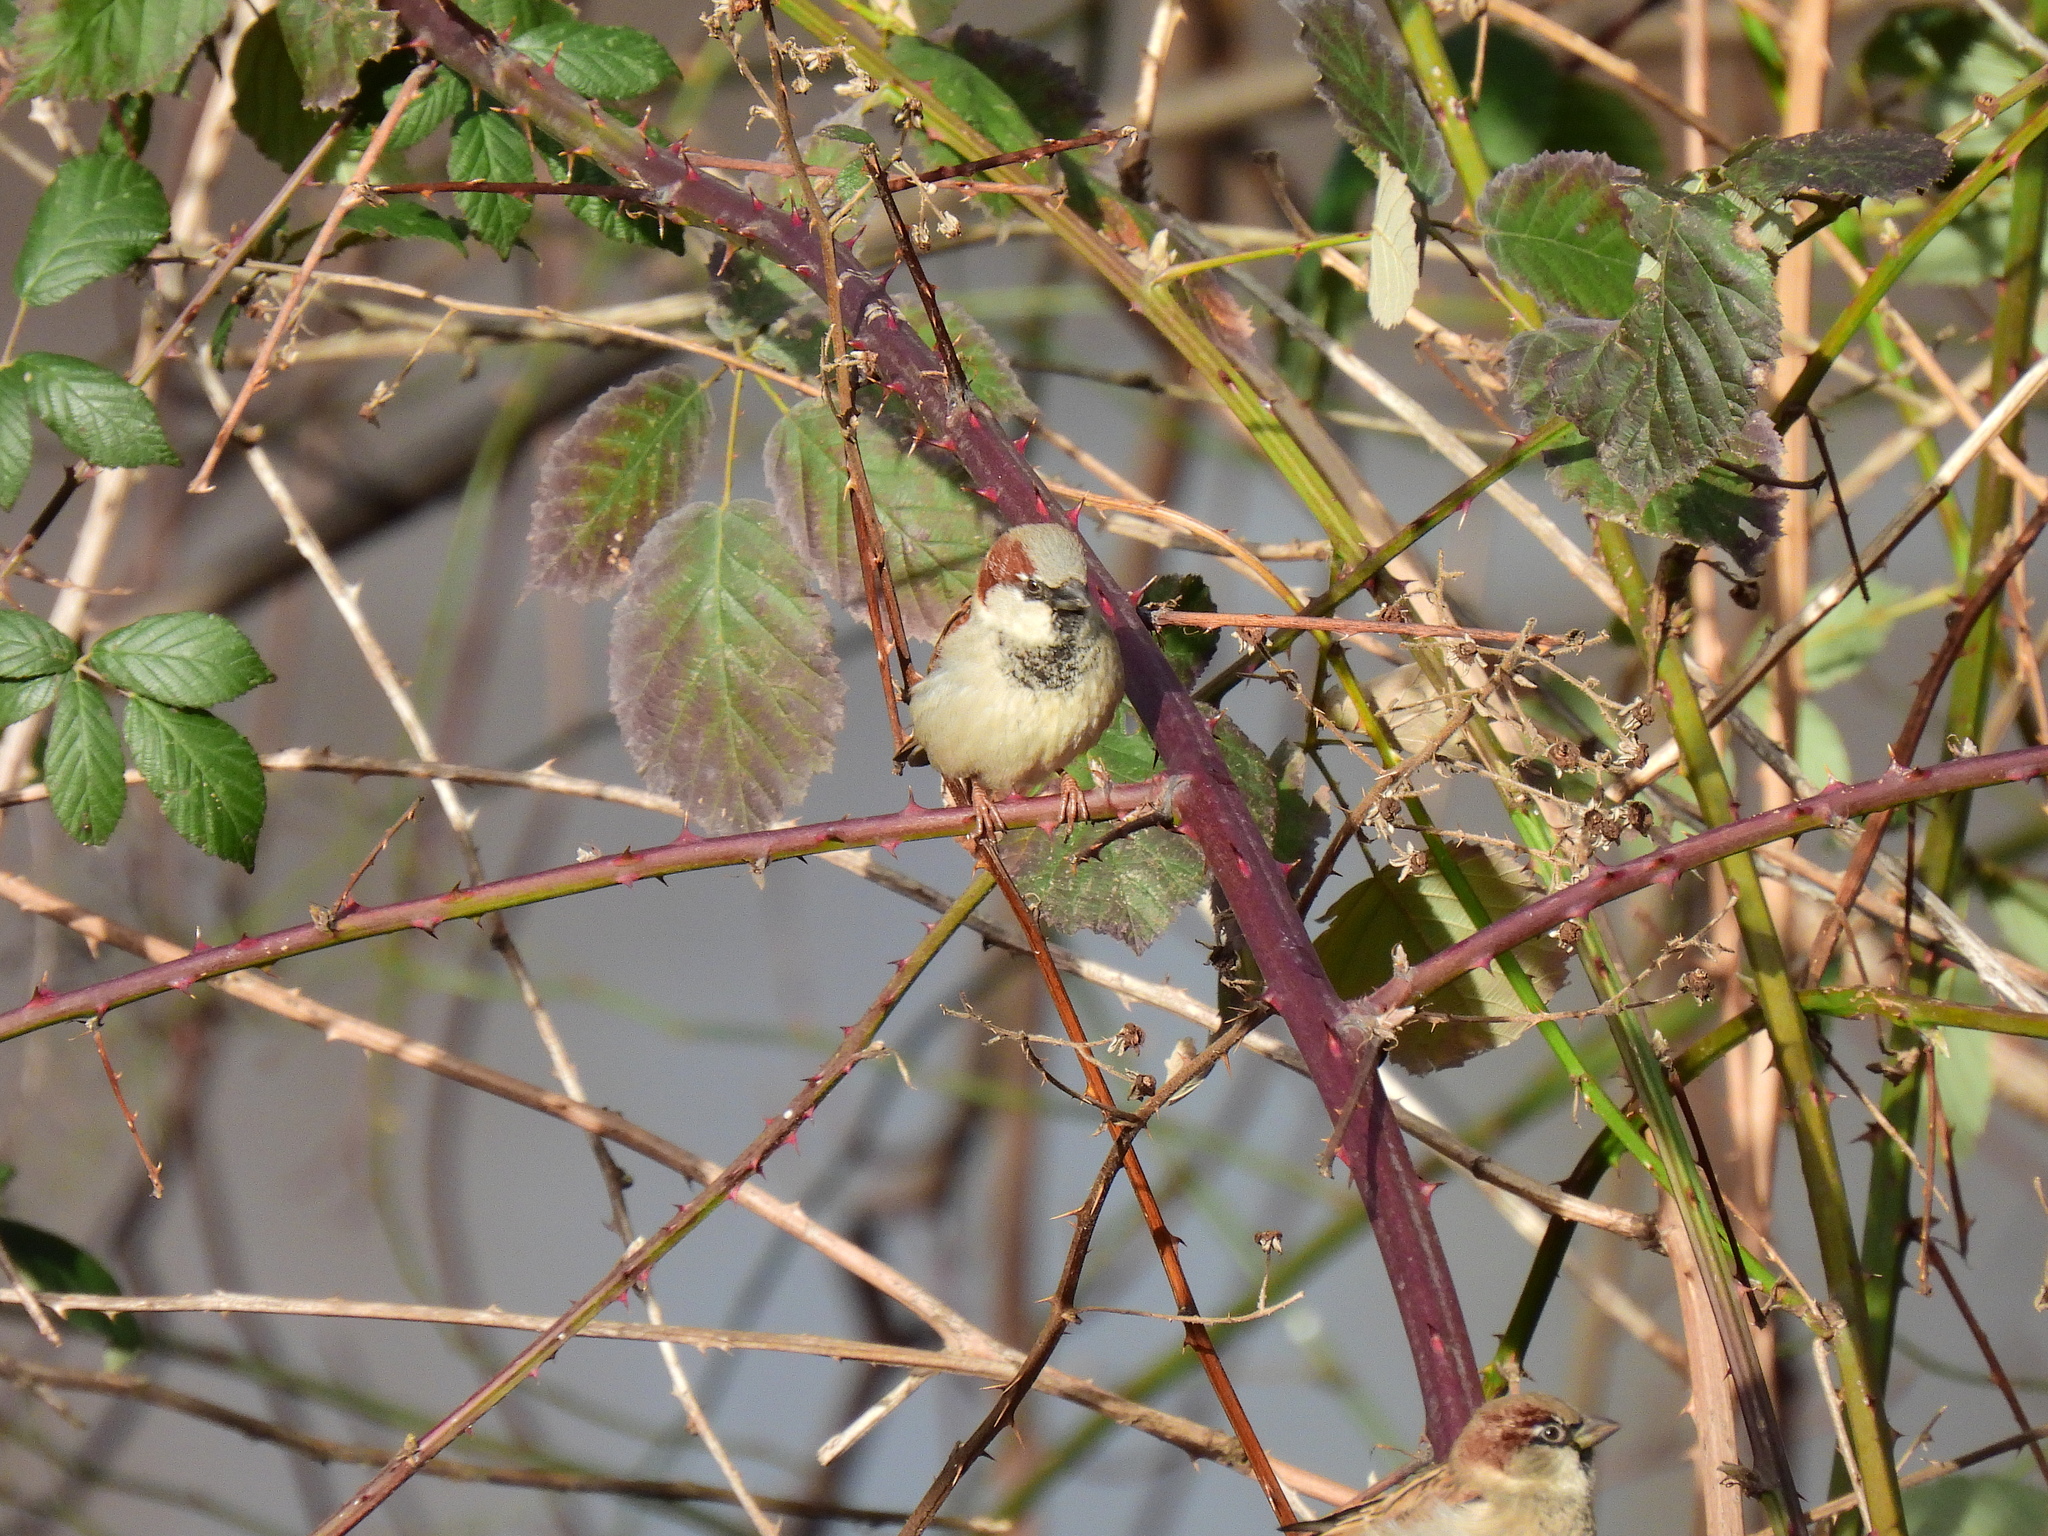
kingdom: Animalia
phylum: Chordata
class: Aves
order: Passeriformes
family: Passeridae
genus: Passer
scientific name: Passer domesticus
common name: House sparrow
